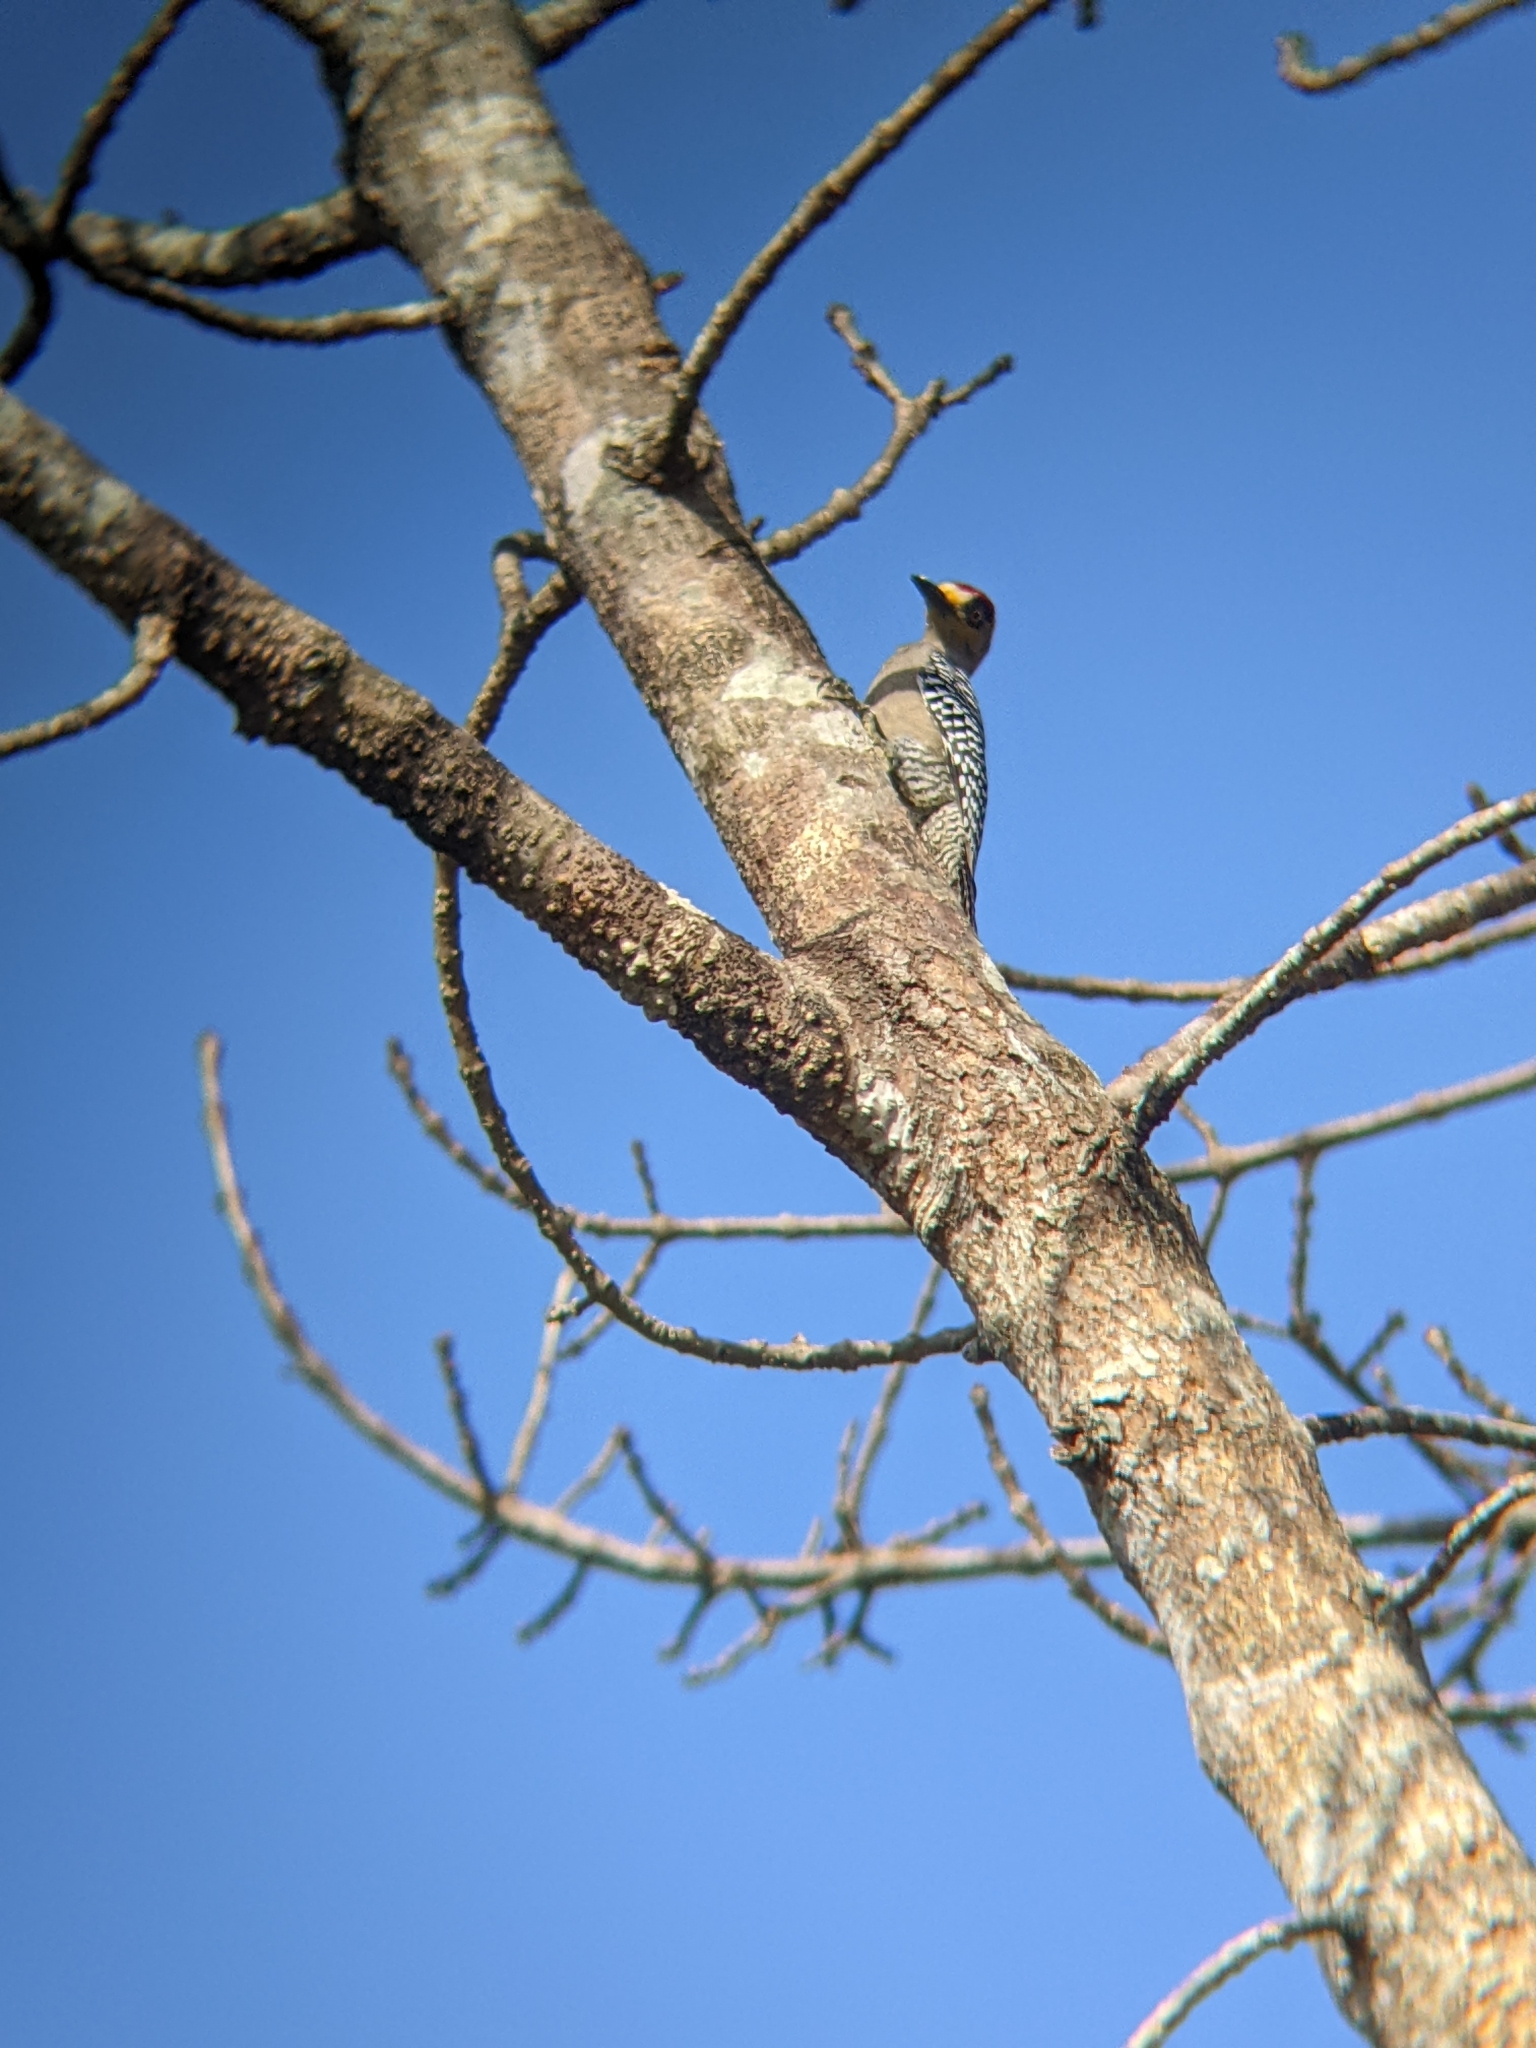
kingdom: Animalia
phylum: Chordata
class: Aves
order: Piciformes
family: Picidae
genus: Melanerpes
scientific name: Melanerpes chrysogenys
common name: Golden-cheeked woodpecker
